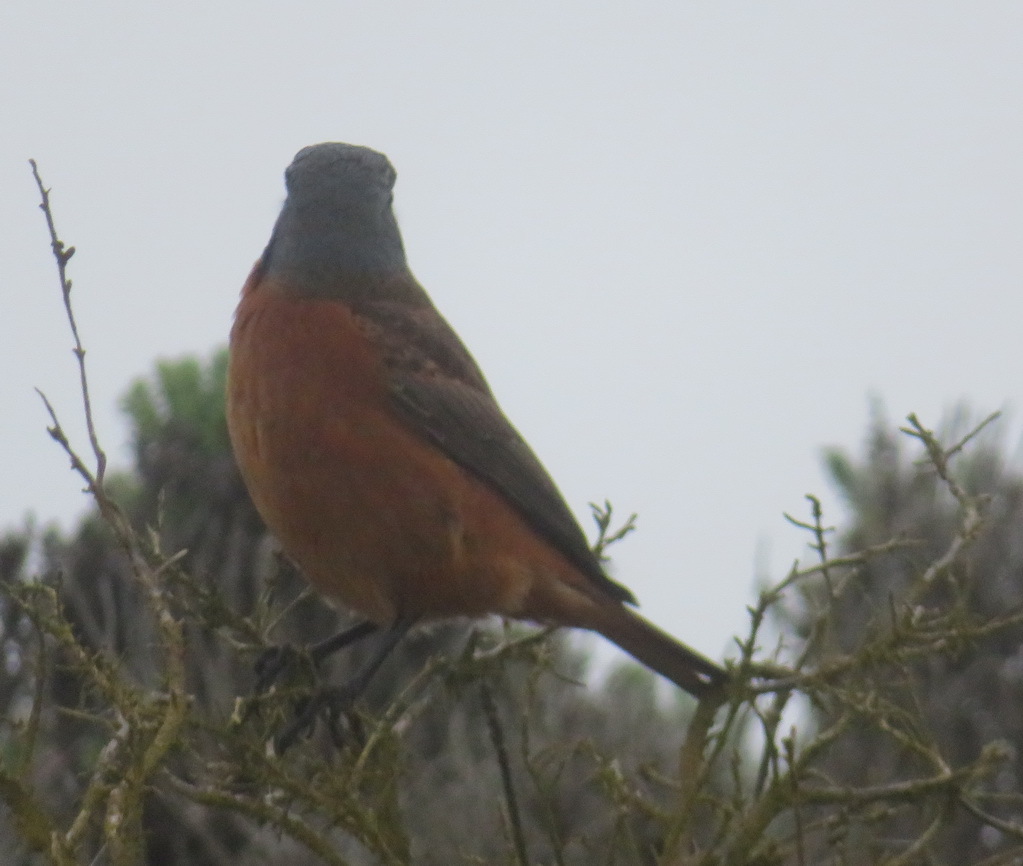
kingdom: Animalia
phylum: Chordata
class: Aves
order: Passeriformes
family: Muscicapidae
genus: Monticola
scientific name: Monticola rupestris
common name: Cape rock thrush
